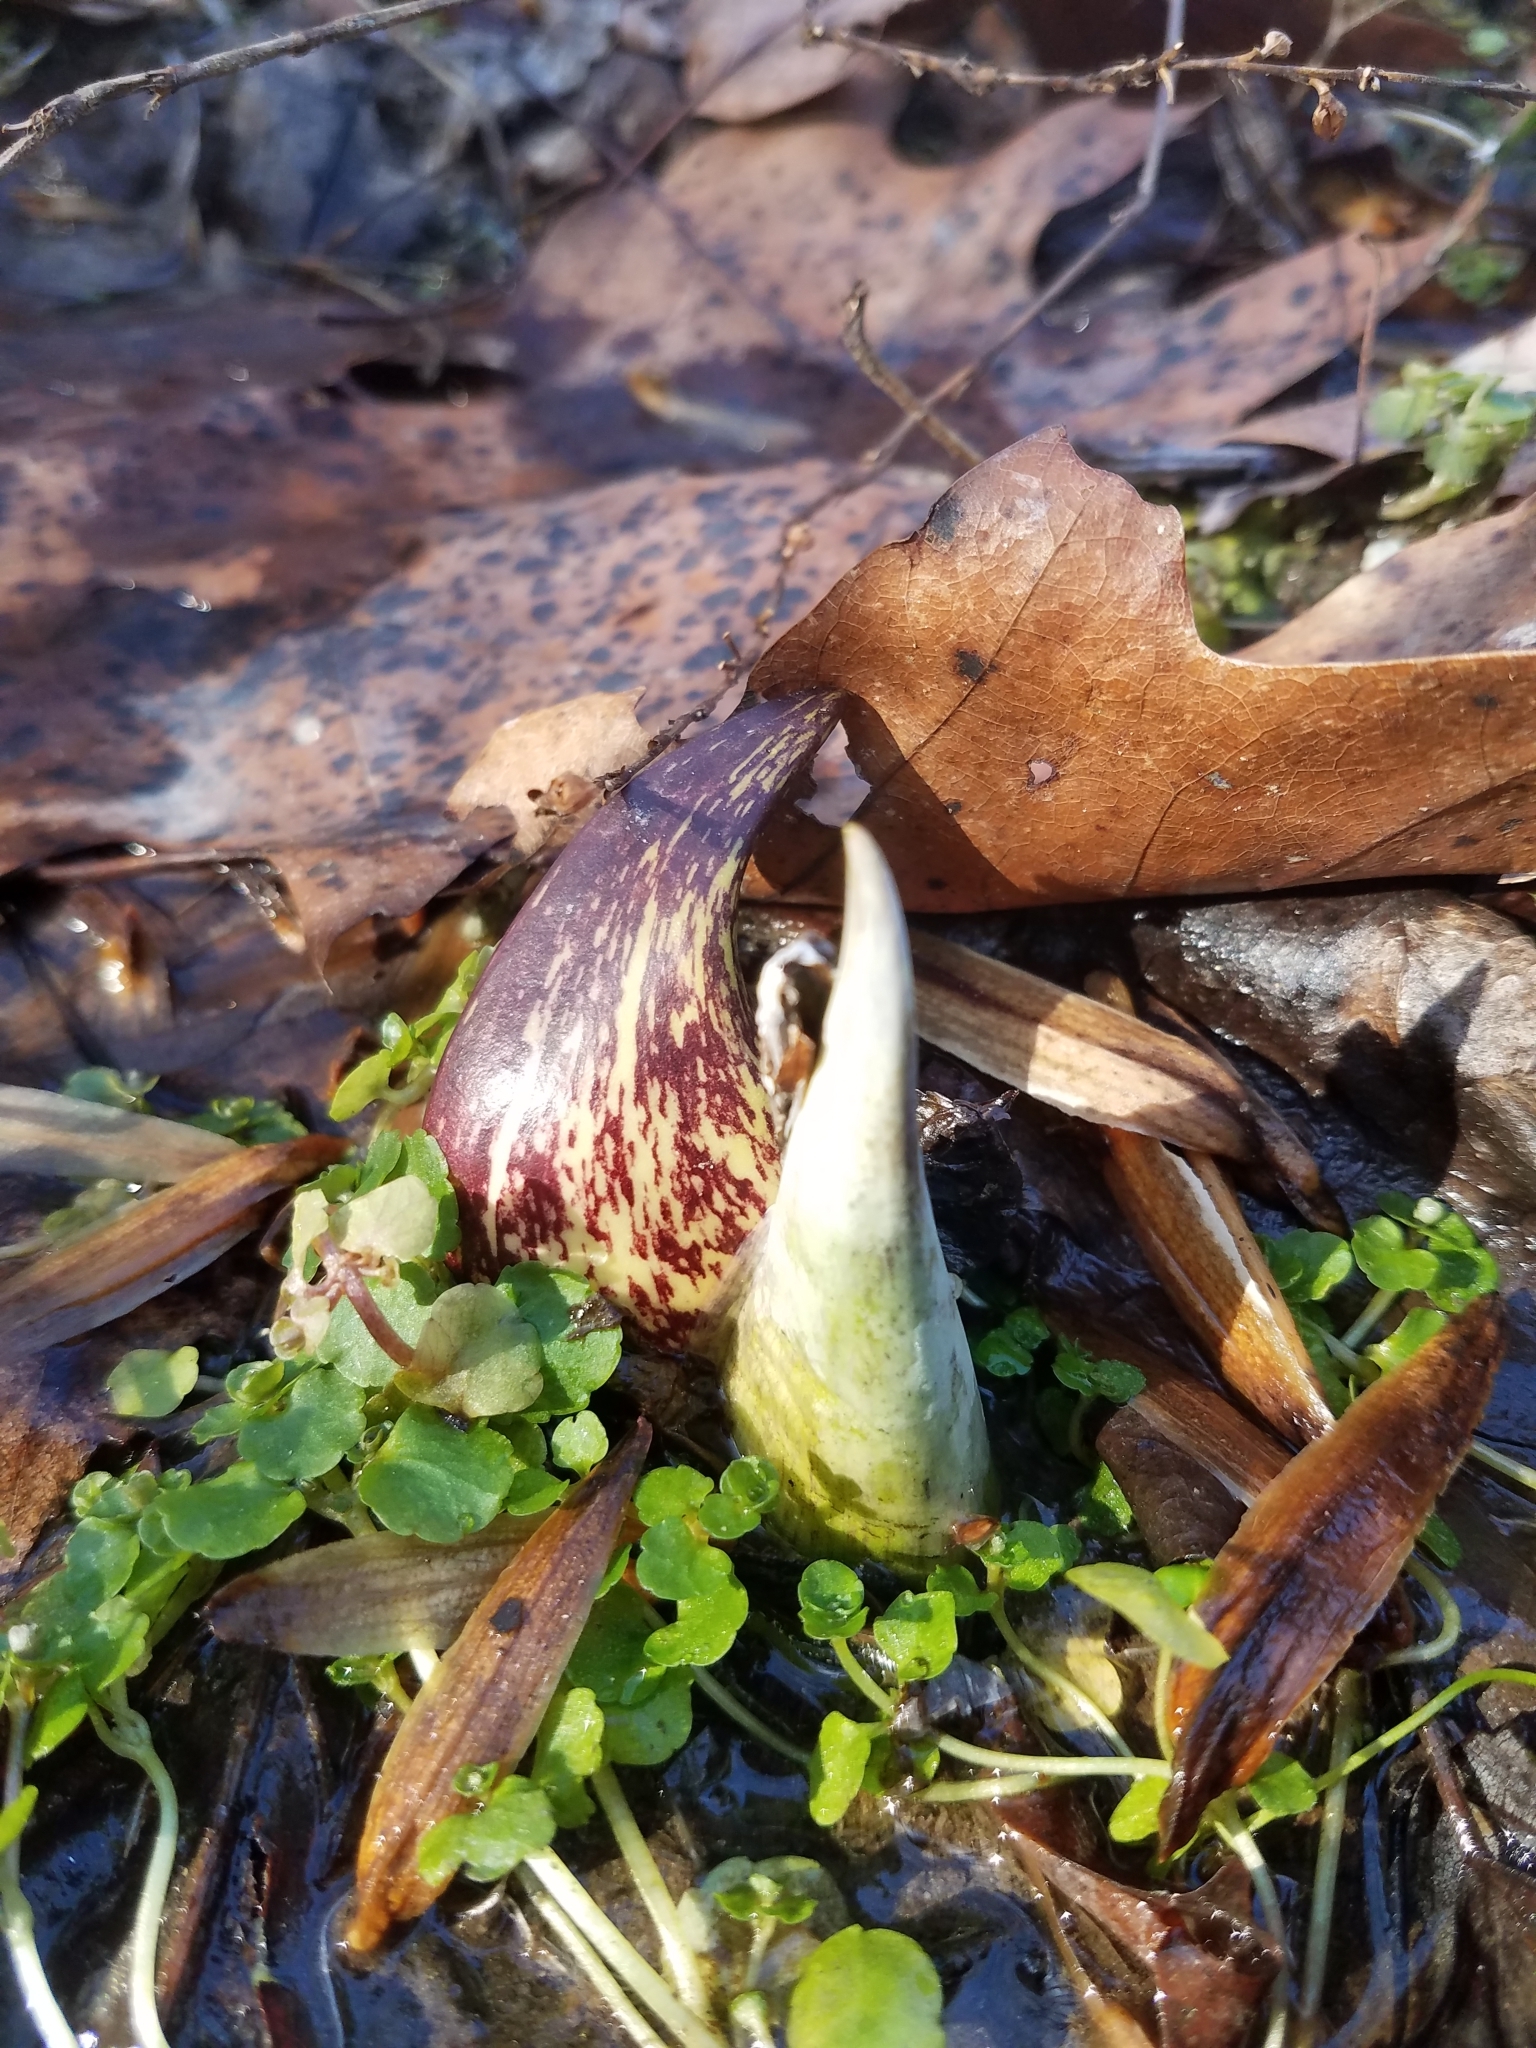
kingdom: Plantae
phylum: Tracheophyta
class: Liliopsida
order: Alismatales
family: Araceae
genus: Symplocarpus
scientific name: Symplocarpus foetidus
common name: Eastern skunk cabbage
